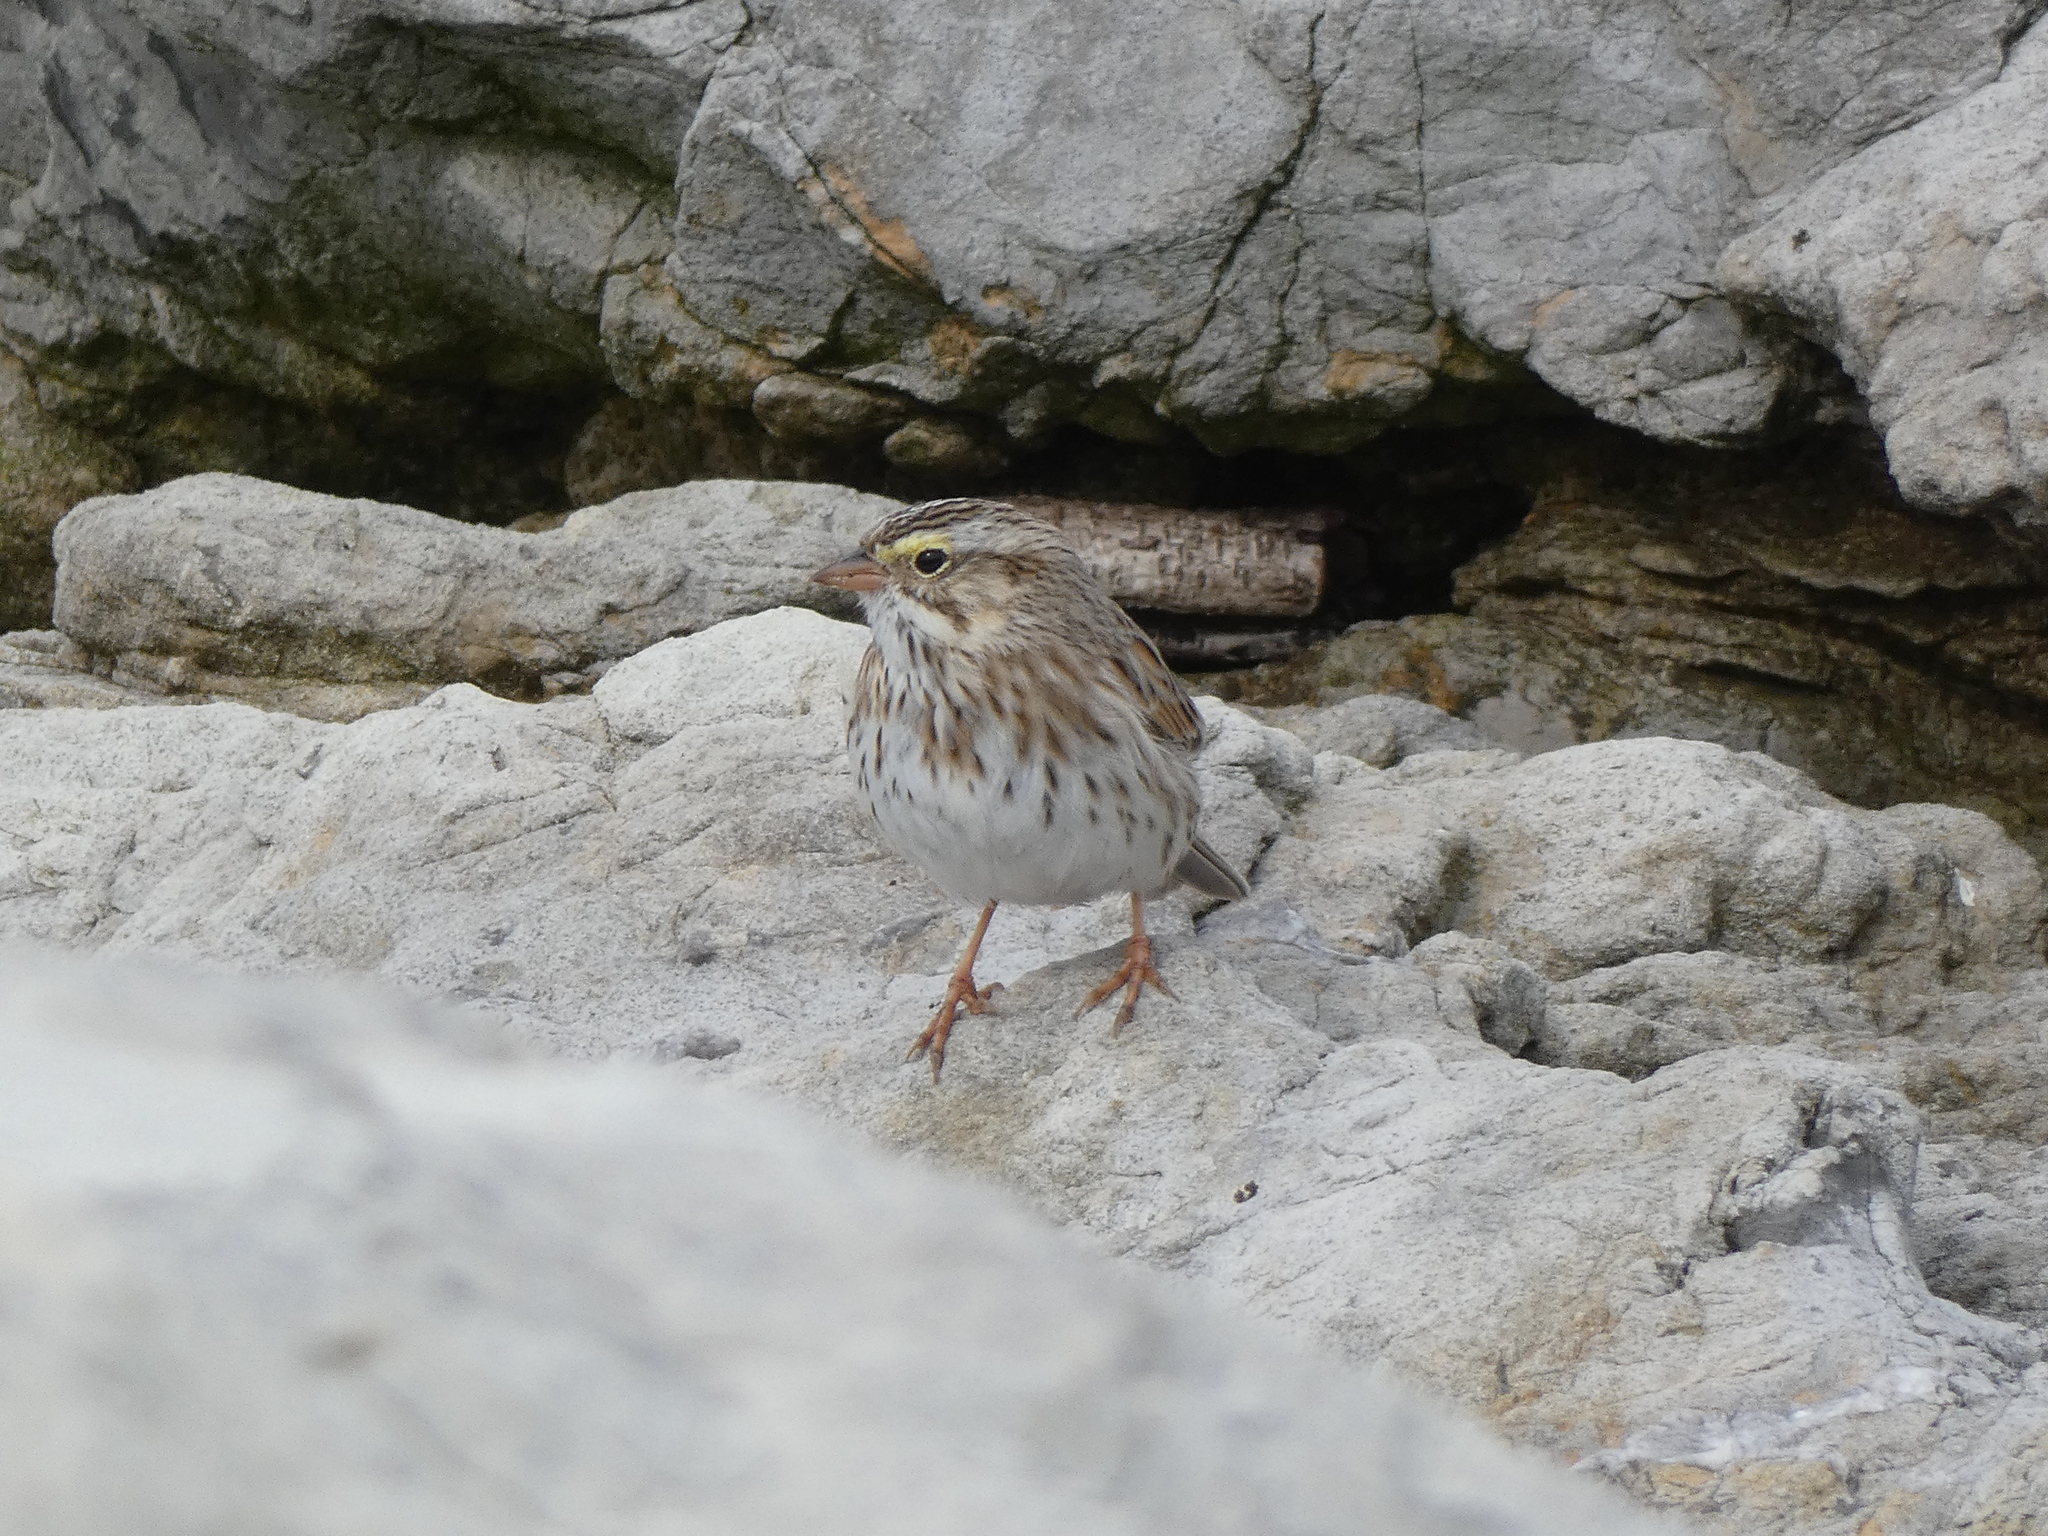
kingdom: Animalia
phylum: Chordata
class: Aves
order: Passeriformes
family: Passerellidae
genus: Passerculus
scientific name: Passerculus sandwichensis
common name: Savannah sparrow
